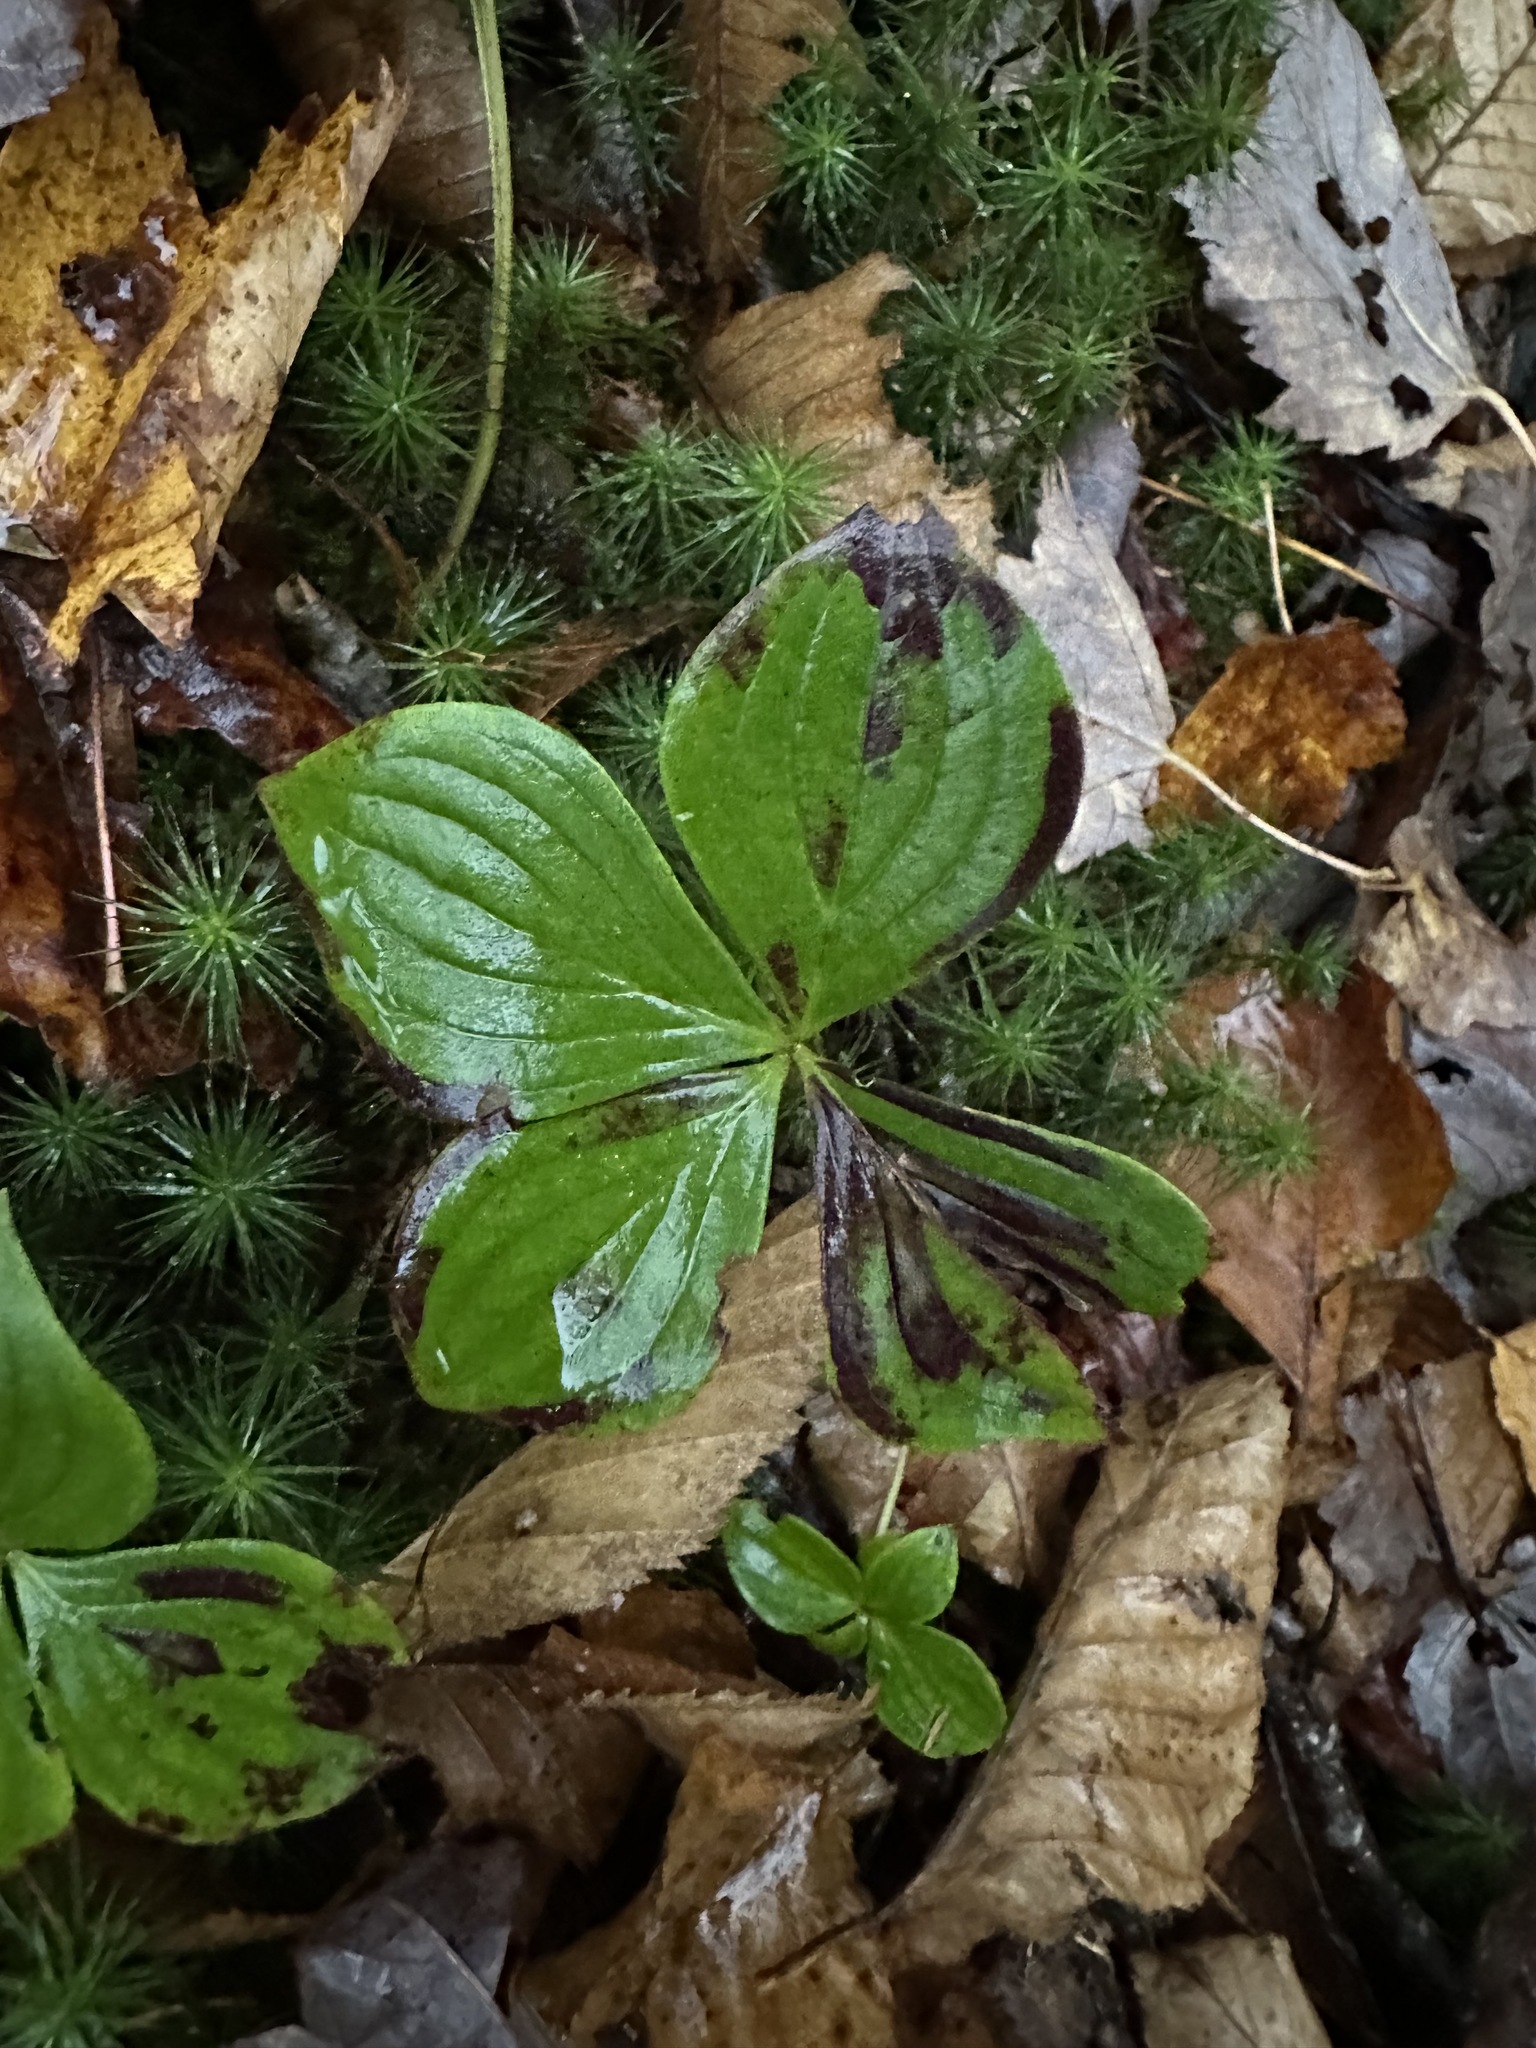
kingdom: Plantae
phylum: Tracheophyta
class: Magnoliopsida
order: Cornales
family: Cornaceae
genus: Cornus
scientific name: Cornus canadensis
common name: Creeping dogwood
